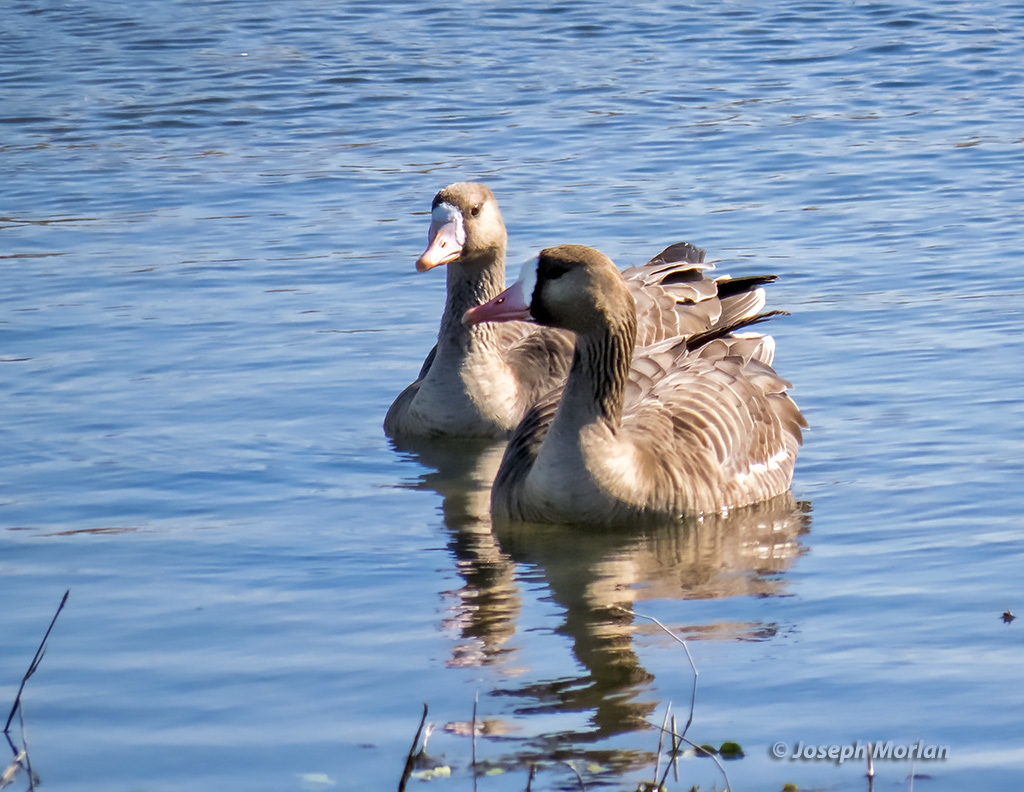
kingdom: Animalia
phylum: Chordata
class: Aves
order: Anseriformes
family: Anatidae
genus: Anser
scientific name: Anser albifrons
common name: Greater white-fronted goose
